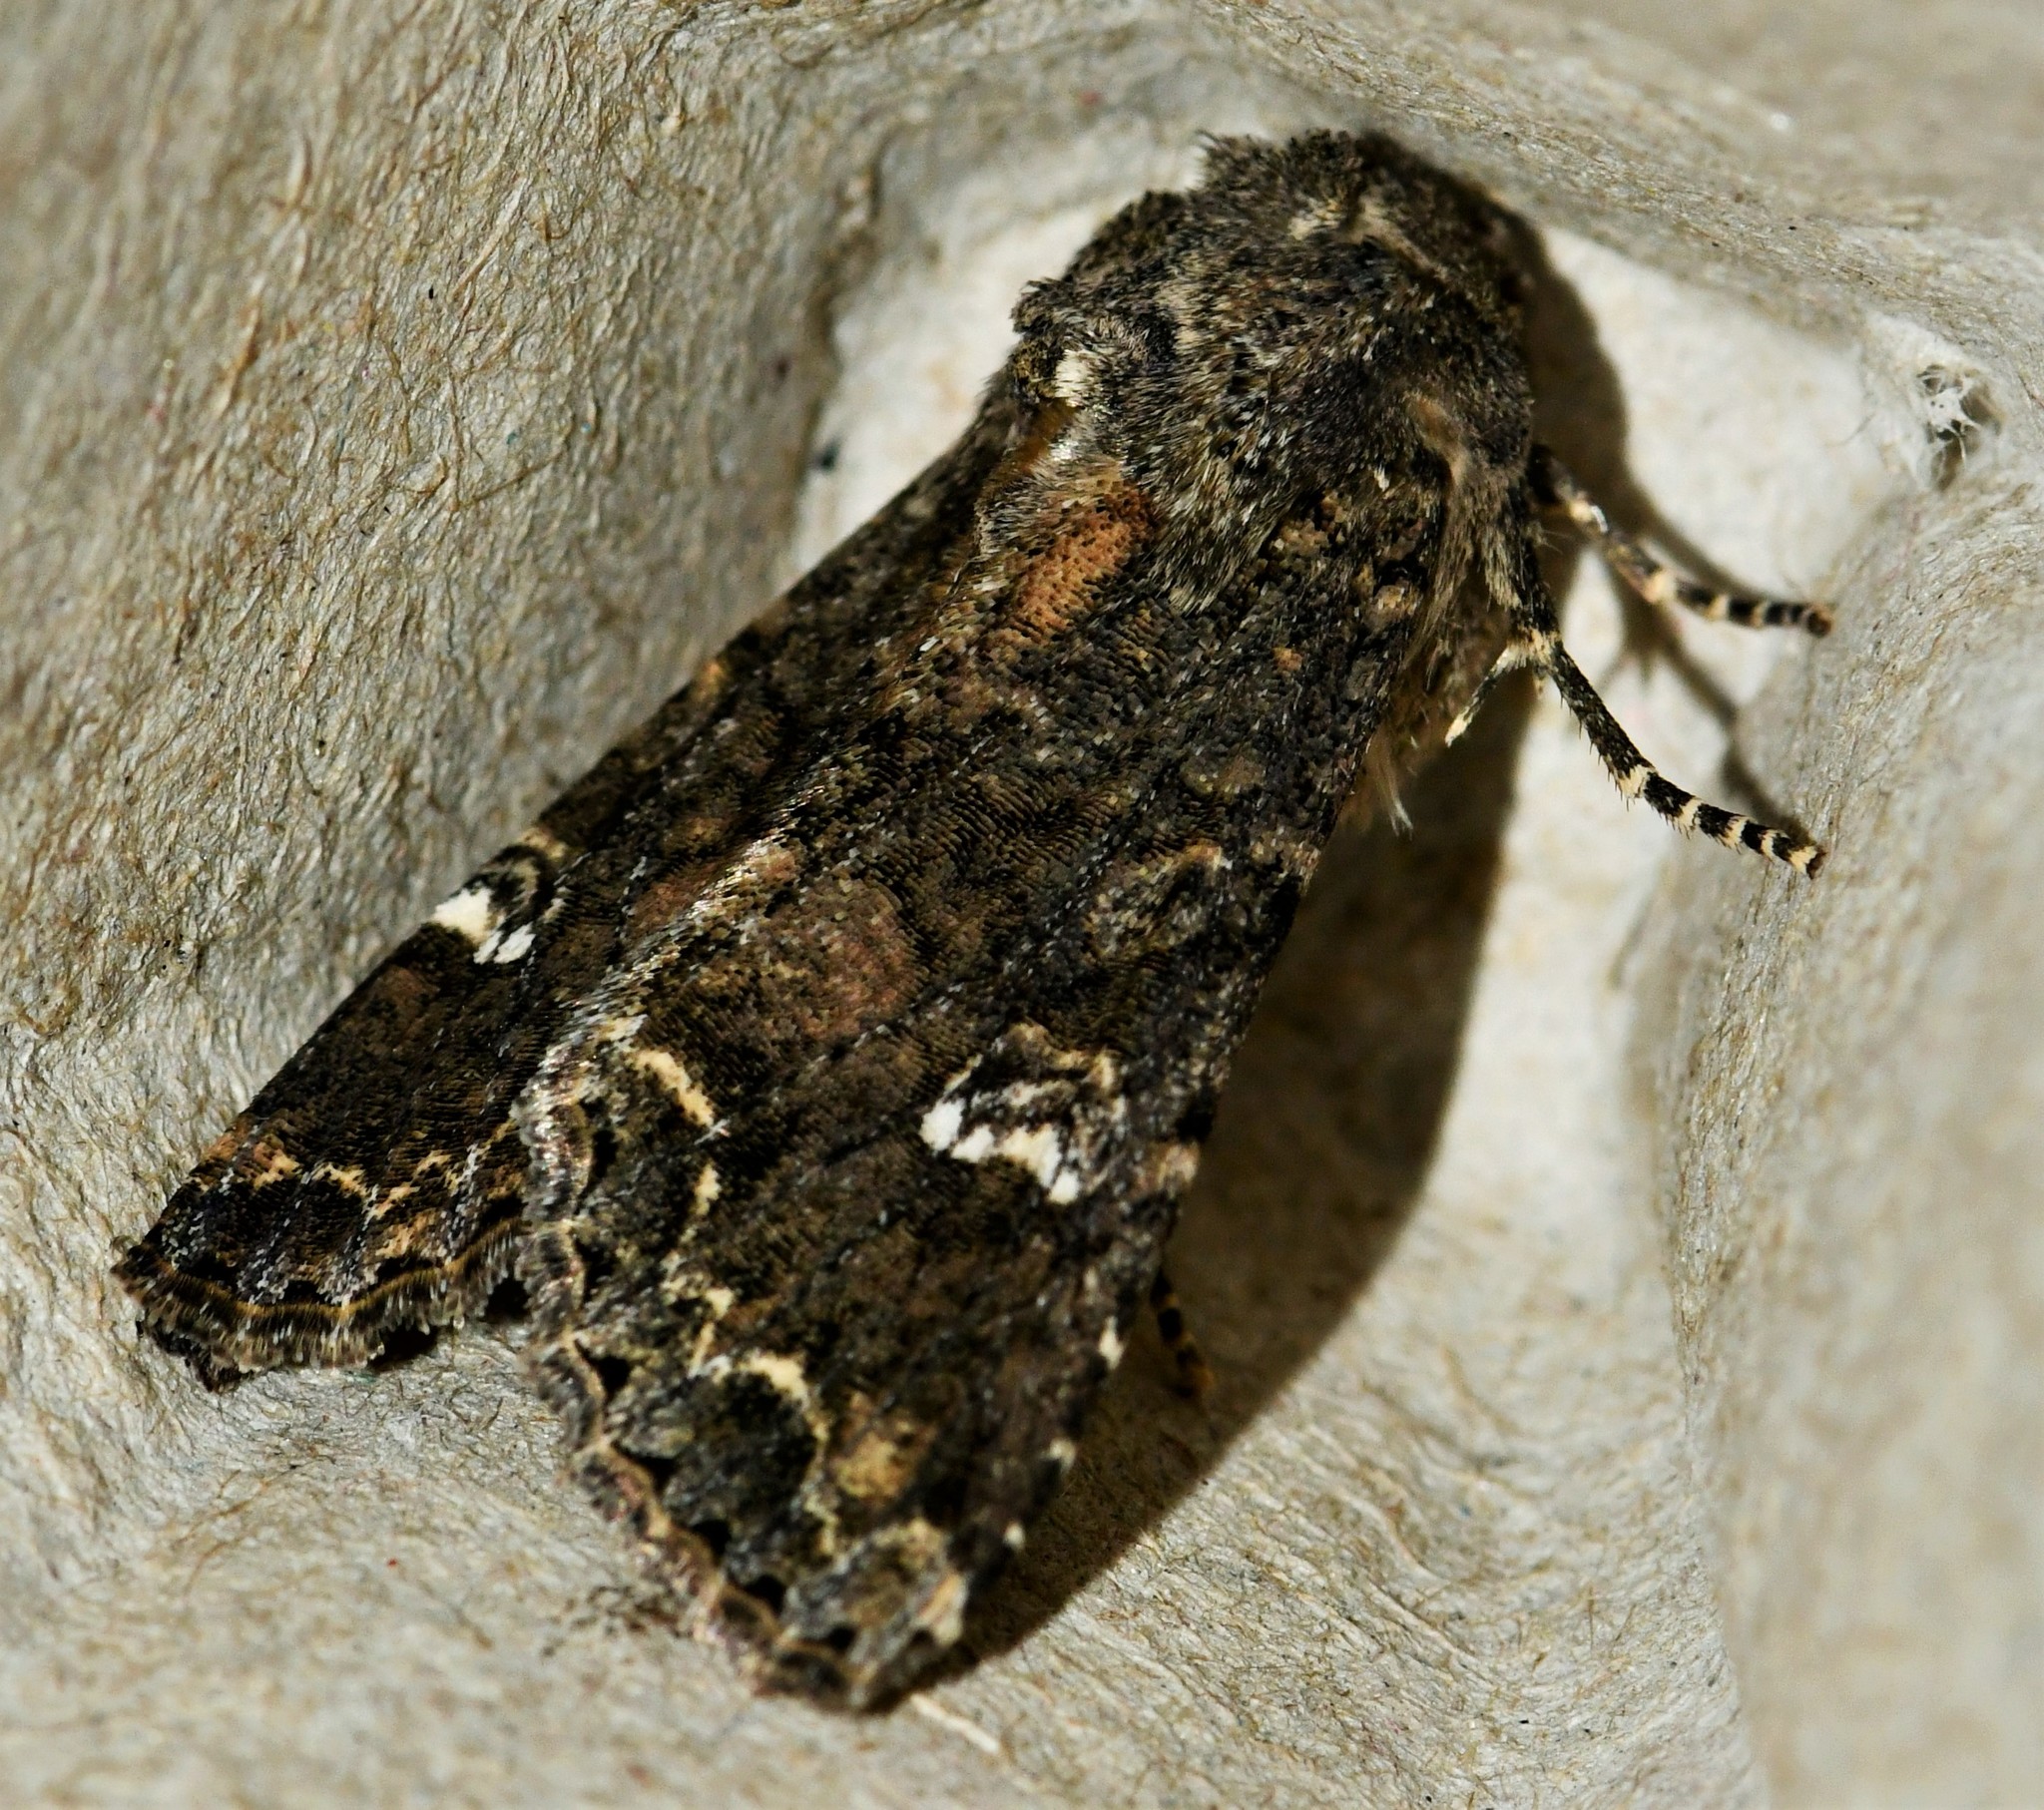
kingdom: Animalia
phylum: Arthropoda
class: Insecta
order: Lepidoptera
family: Noctuidae
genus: Mamestra
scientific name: Mamestra brassicae
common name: Cabbage moth
